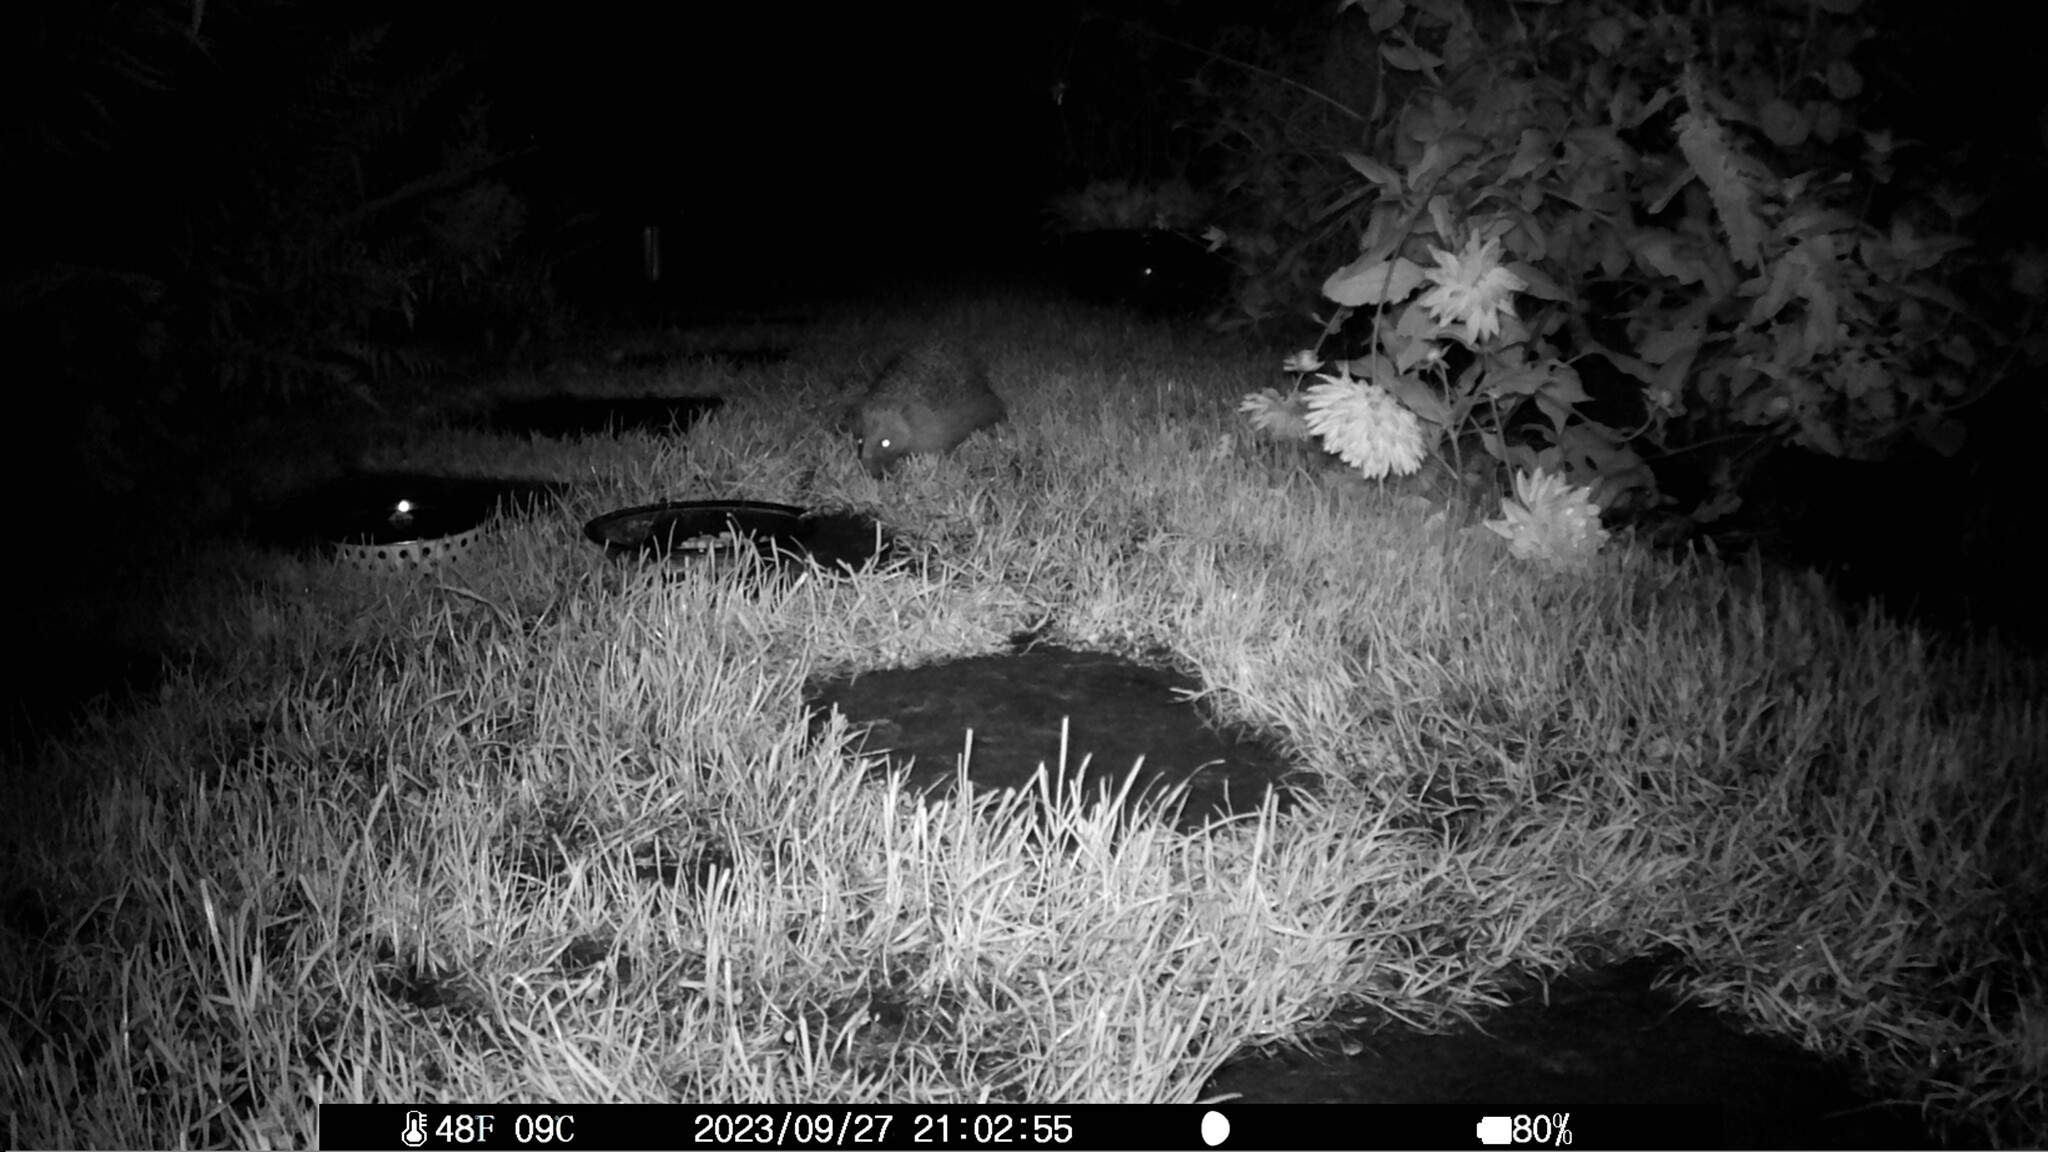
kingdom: Animalia
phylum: Chordata
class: Mammalia
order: Erinaceomorpha
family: Erinaceidae
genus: Erinaceus
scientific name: Erinaceus europaeus
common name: West european hedgehog
